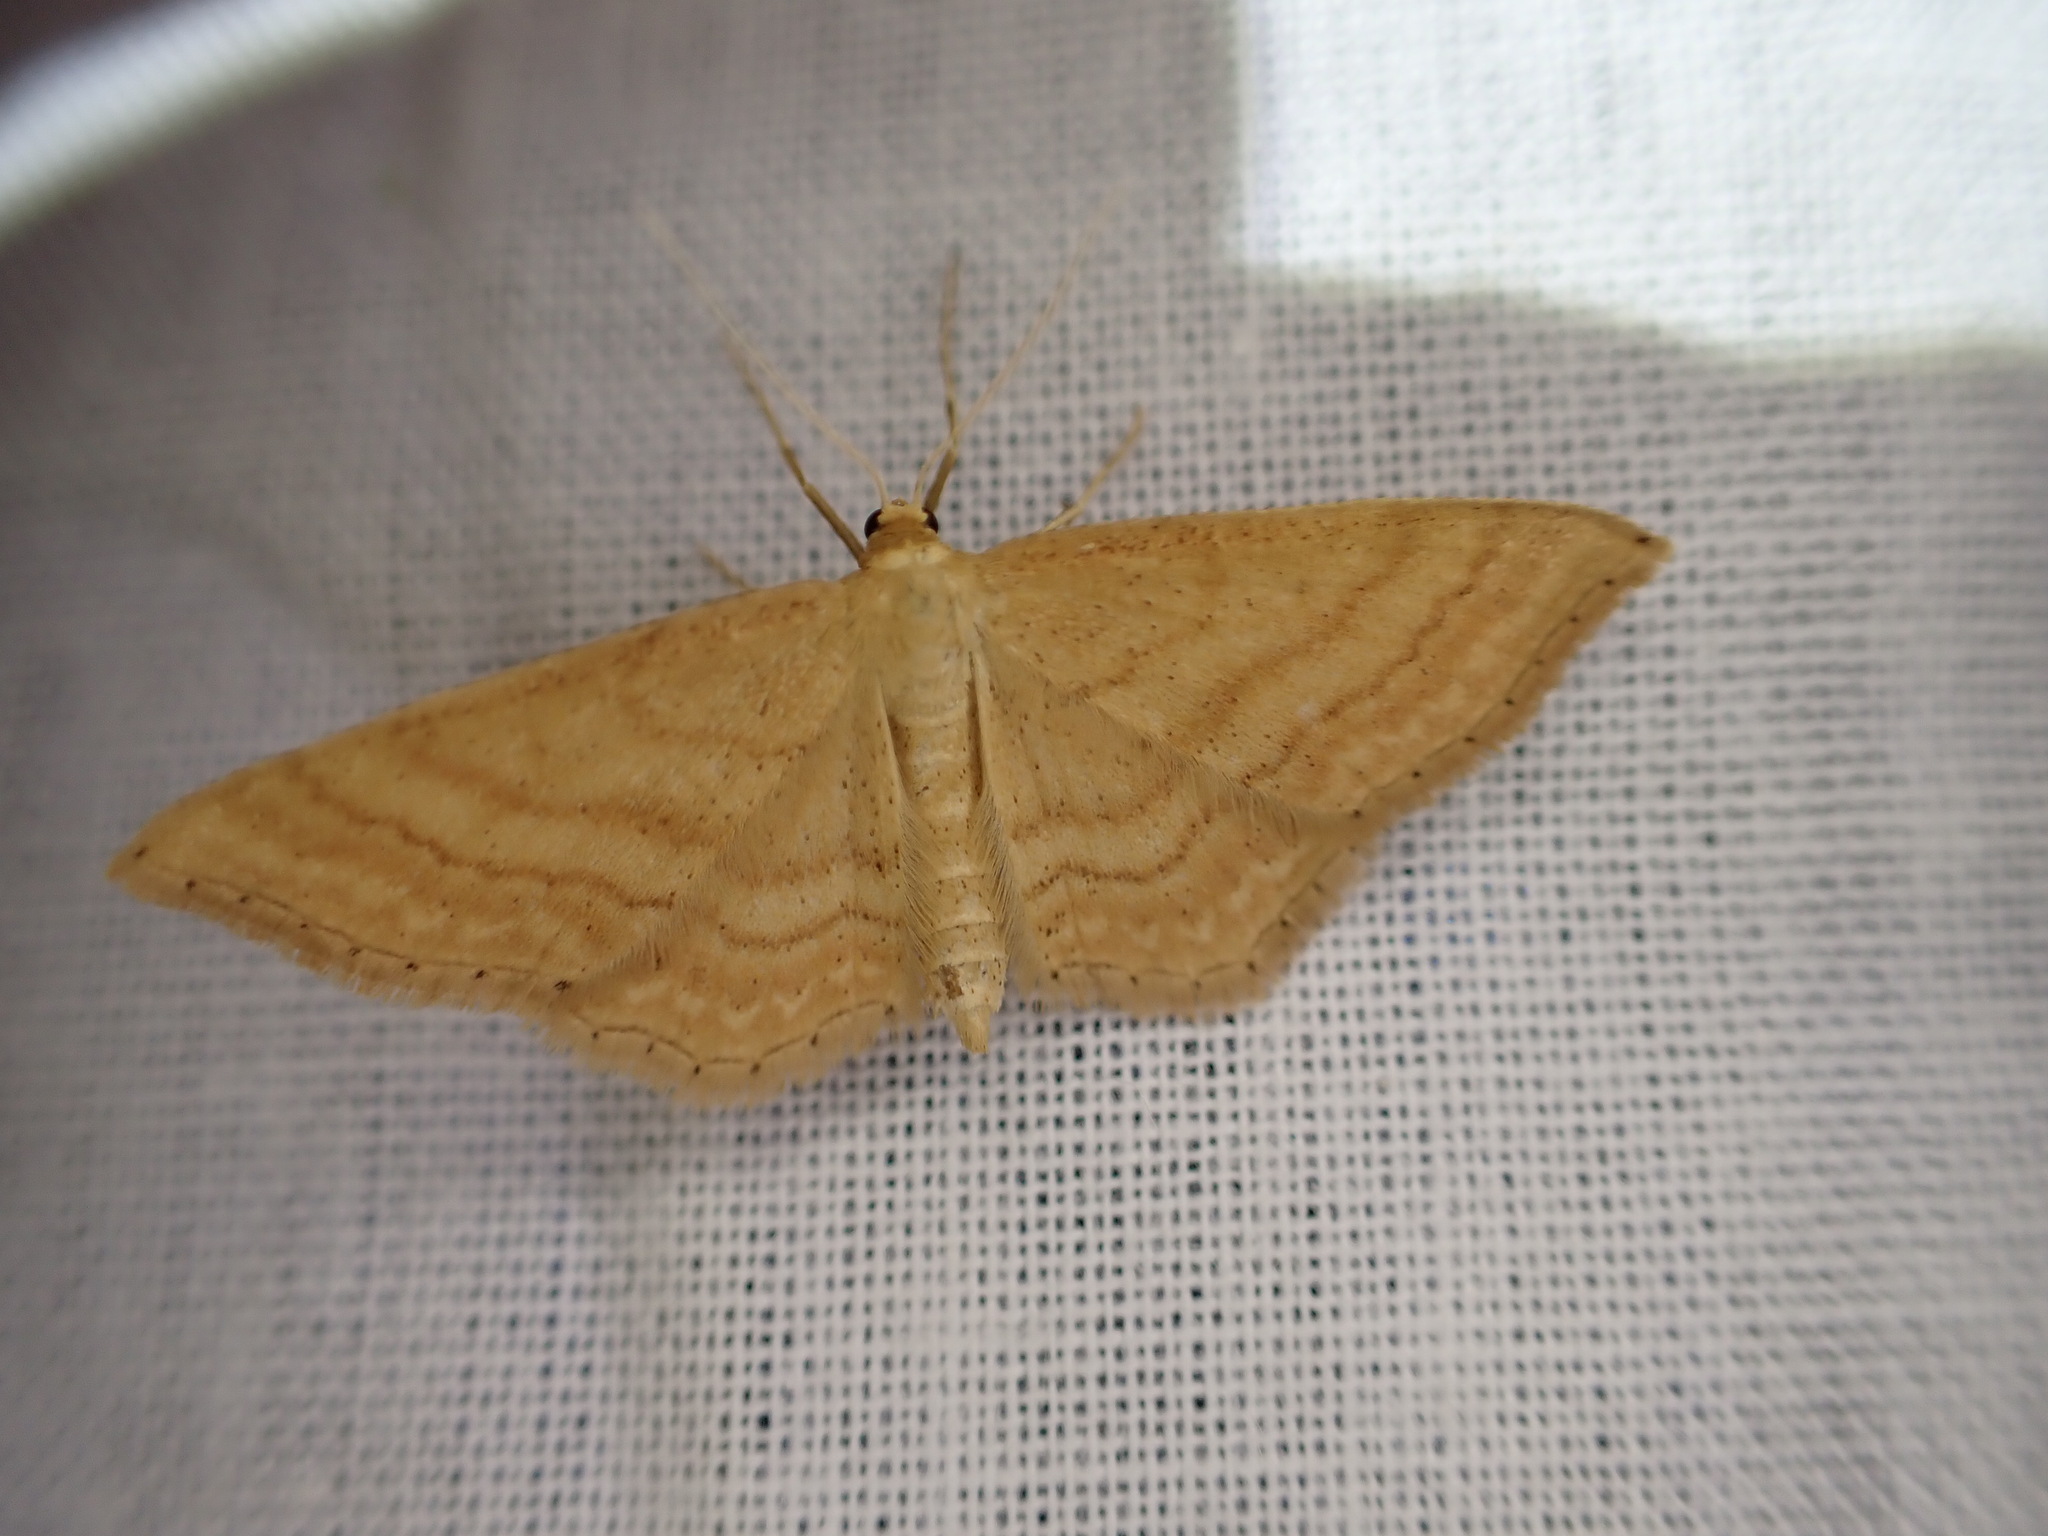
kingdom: Animalia
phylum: Arthropoda
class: Insecta
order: Lepidoptera
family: Geometridae
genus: Idaea
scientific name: Idaea ochrata
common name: Bright wave
